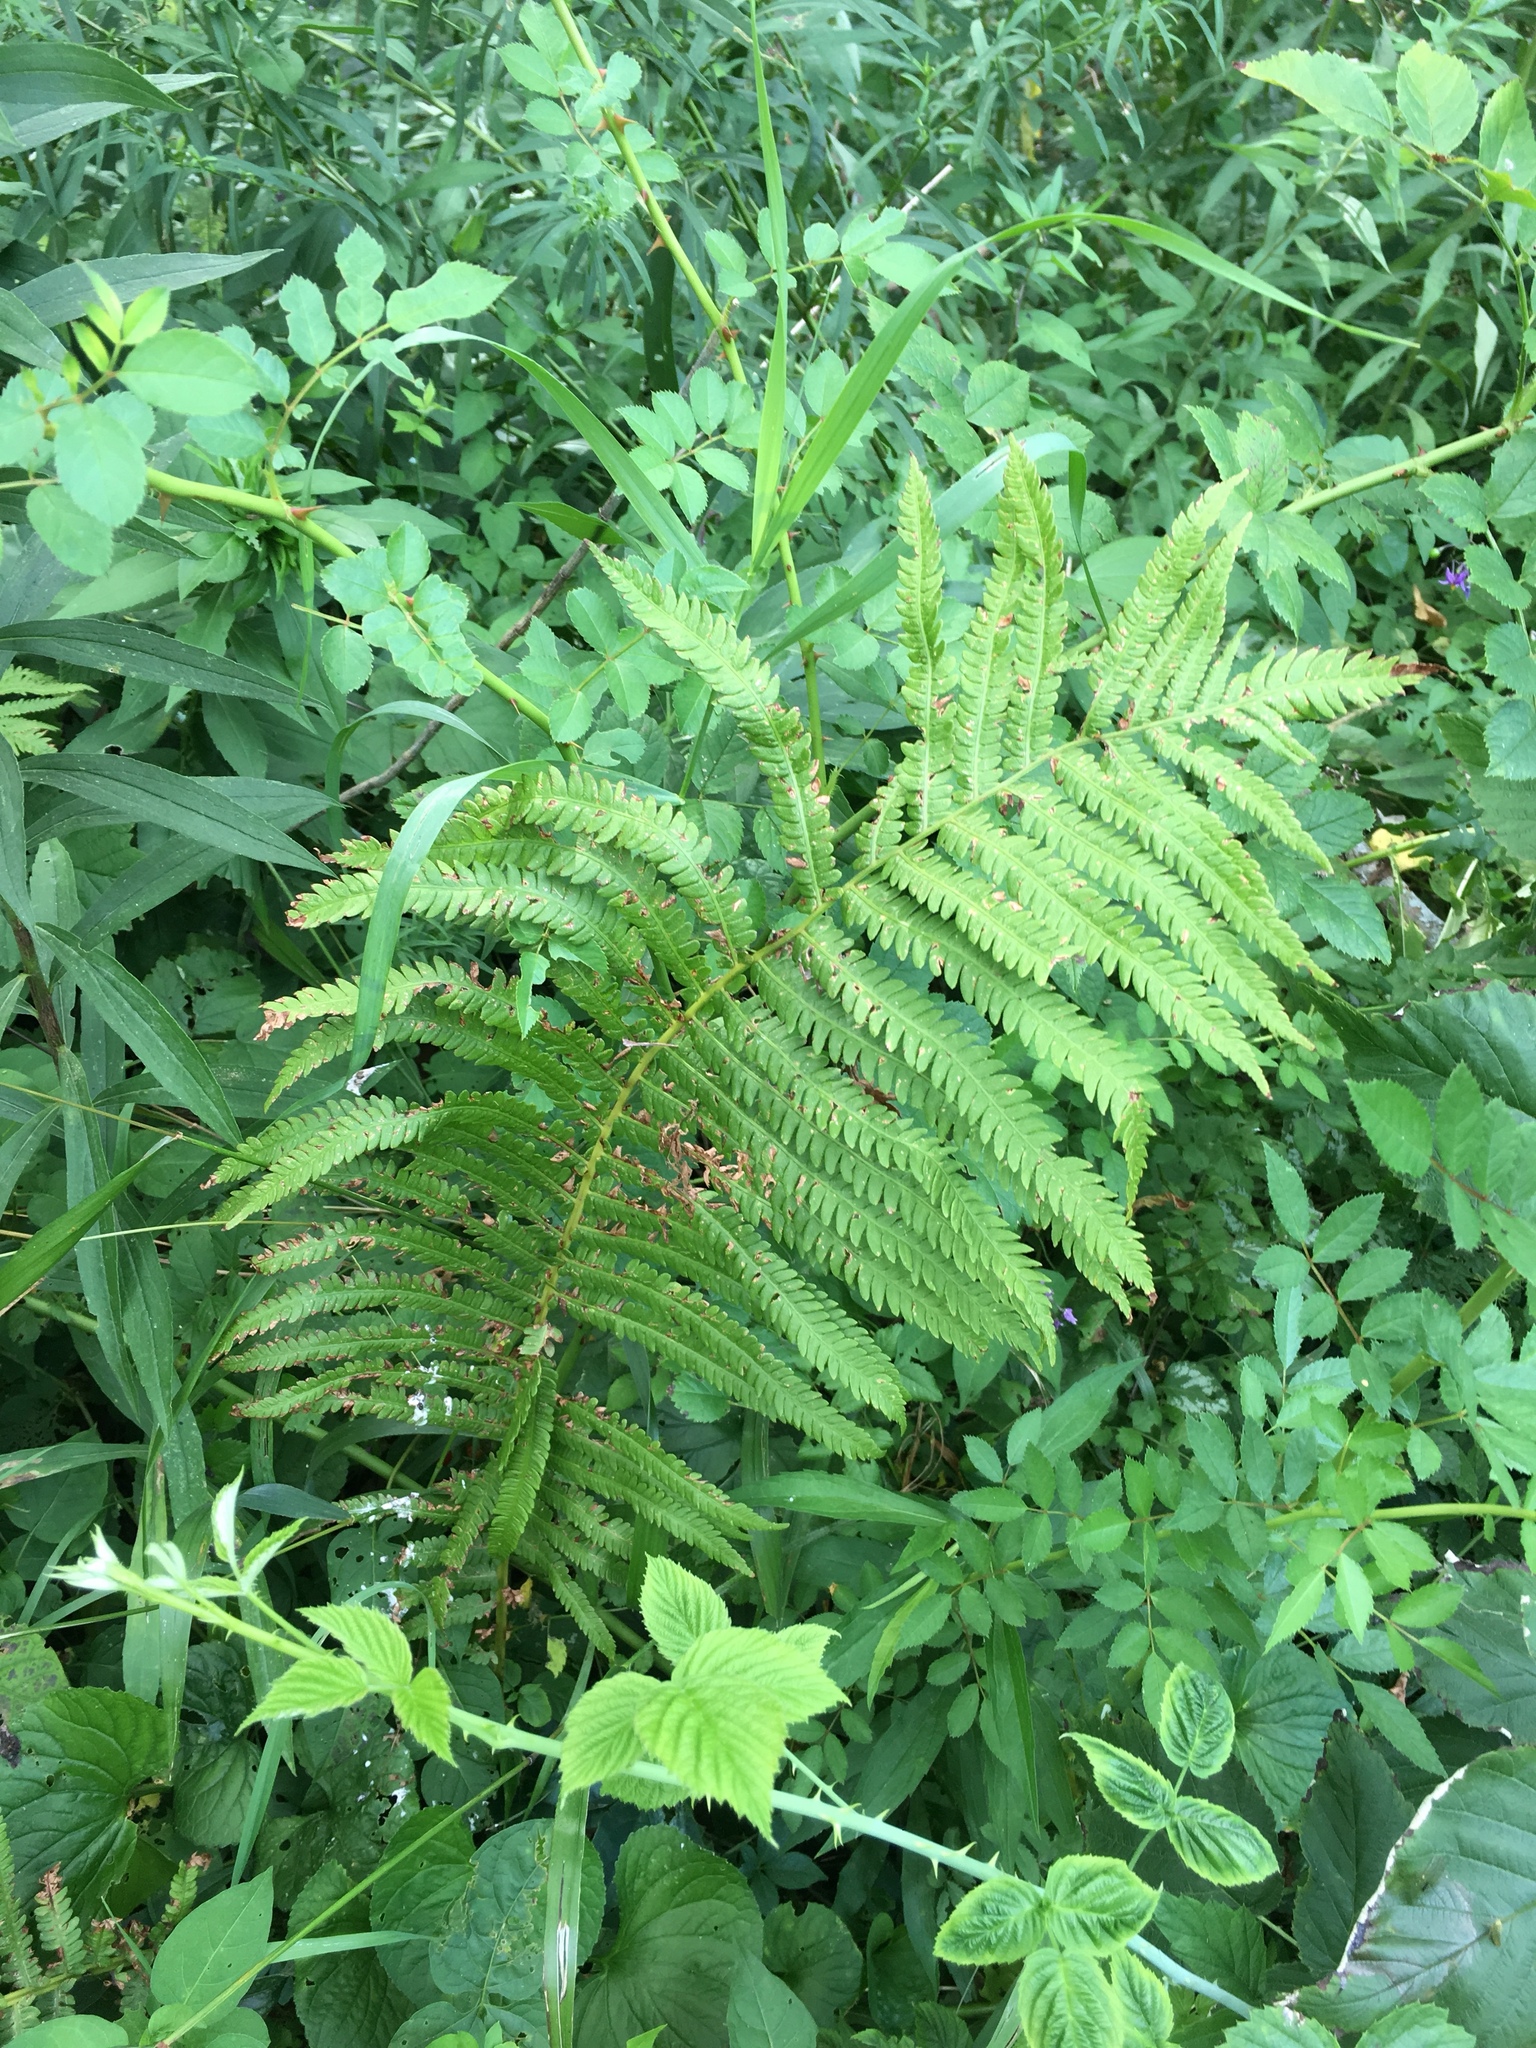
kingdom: Plantae
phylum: Tracheophyta
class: Polypodiopsida
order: Polypodiales
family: Onocleaceae
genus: Matteuccia
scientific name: Matteuccia struthiopteris
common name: Ostrich fern
